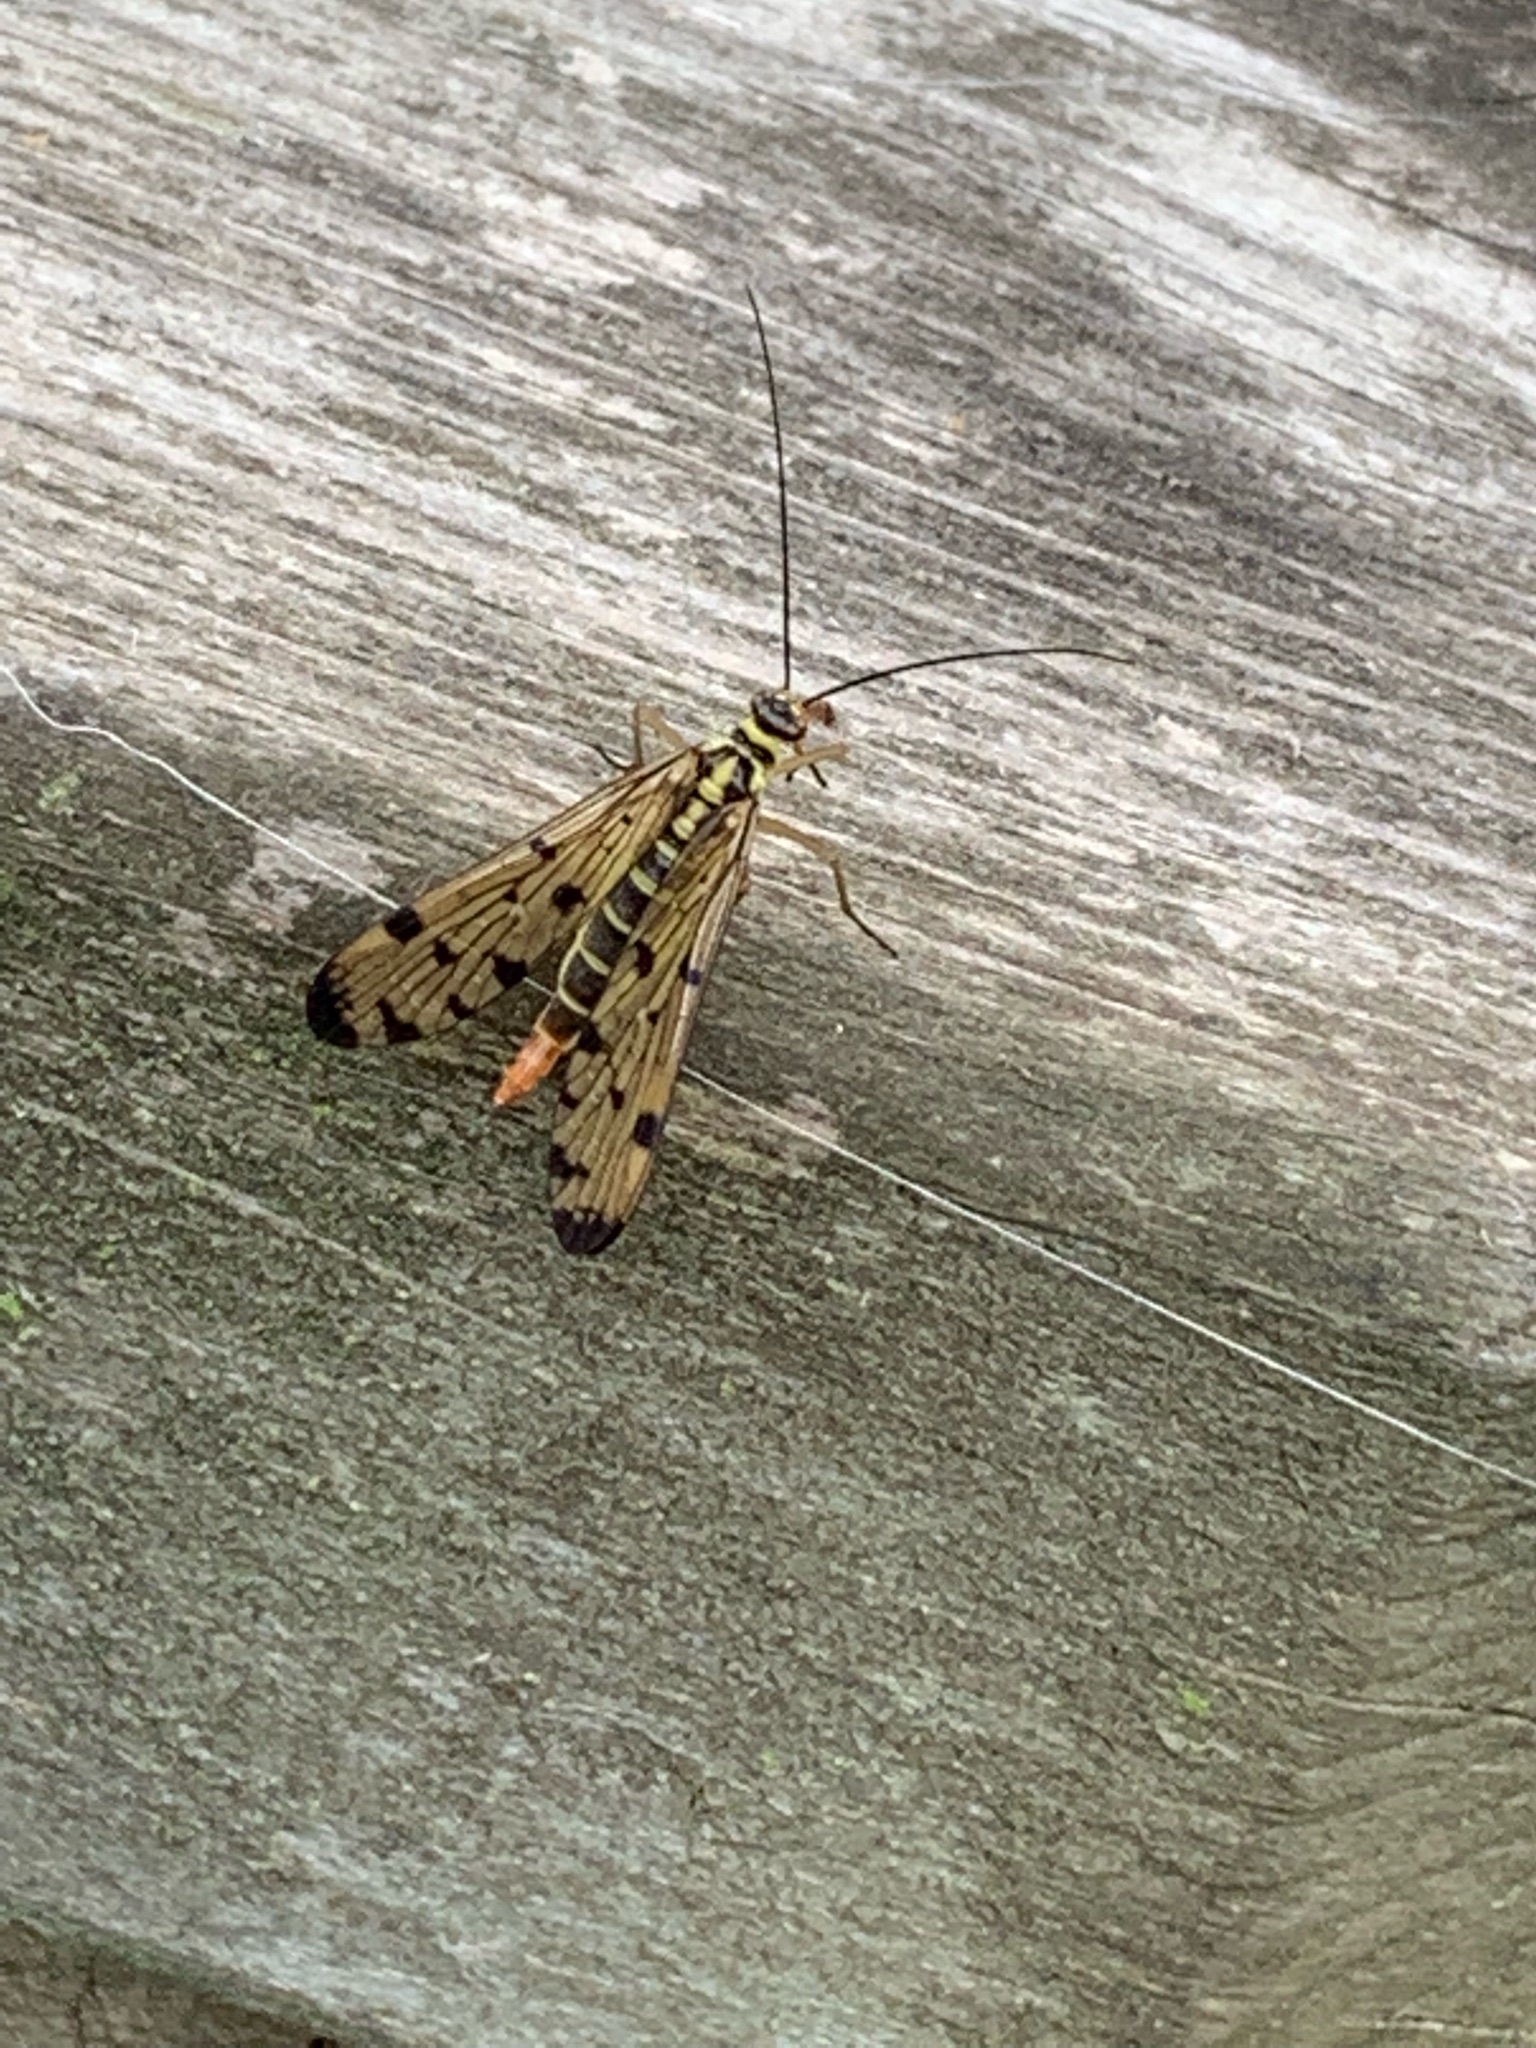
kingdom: Animalia
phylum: Arthropoda
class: Insecta
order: Mecoptera
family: Panorpidae
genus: Panorpa
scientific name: Panorpa germanica
